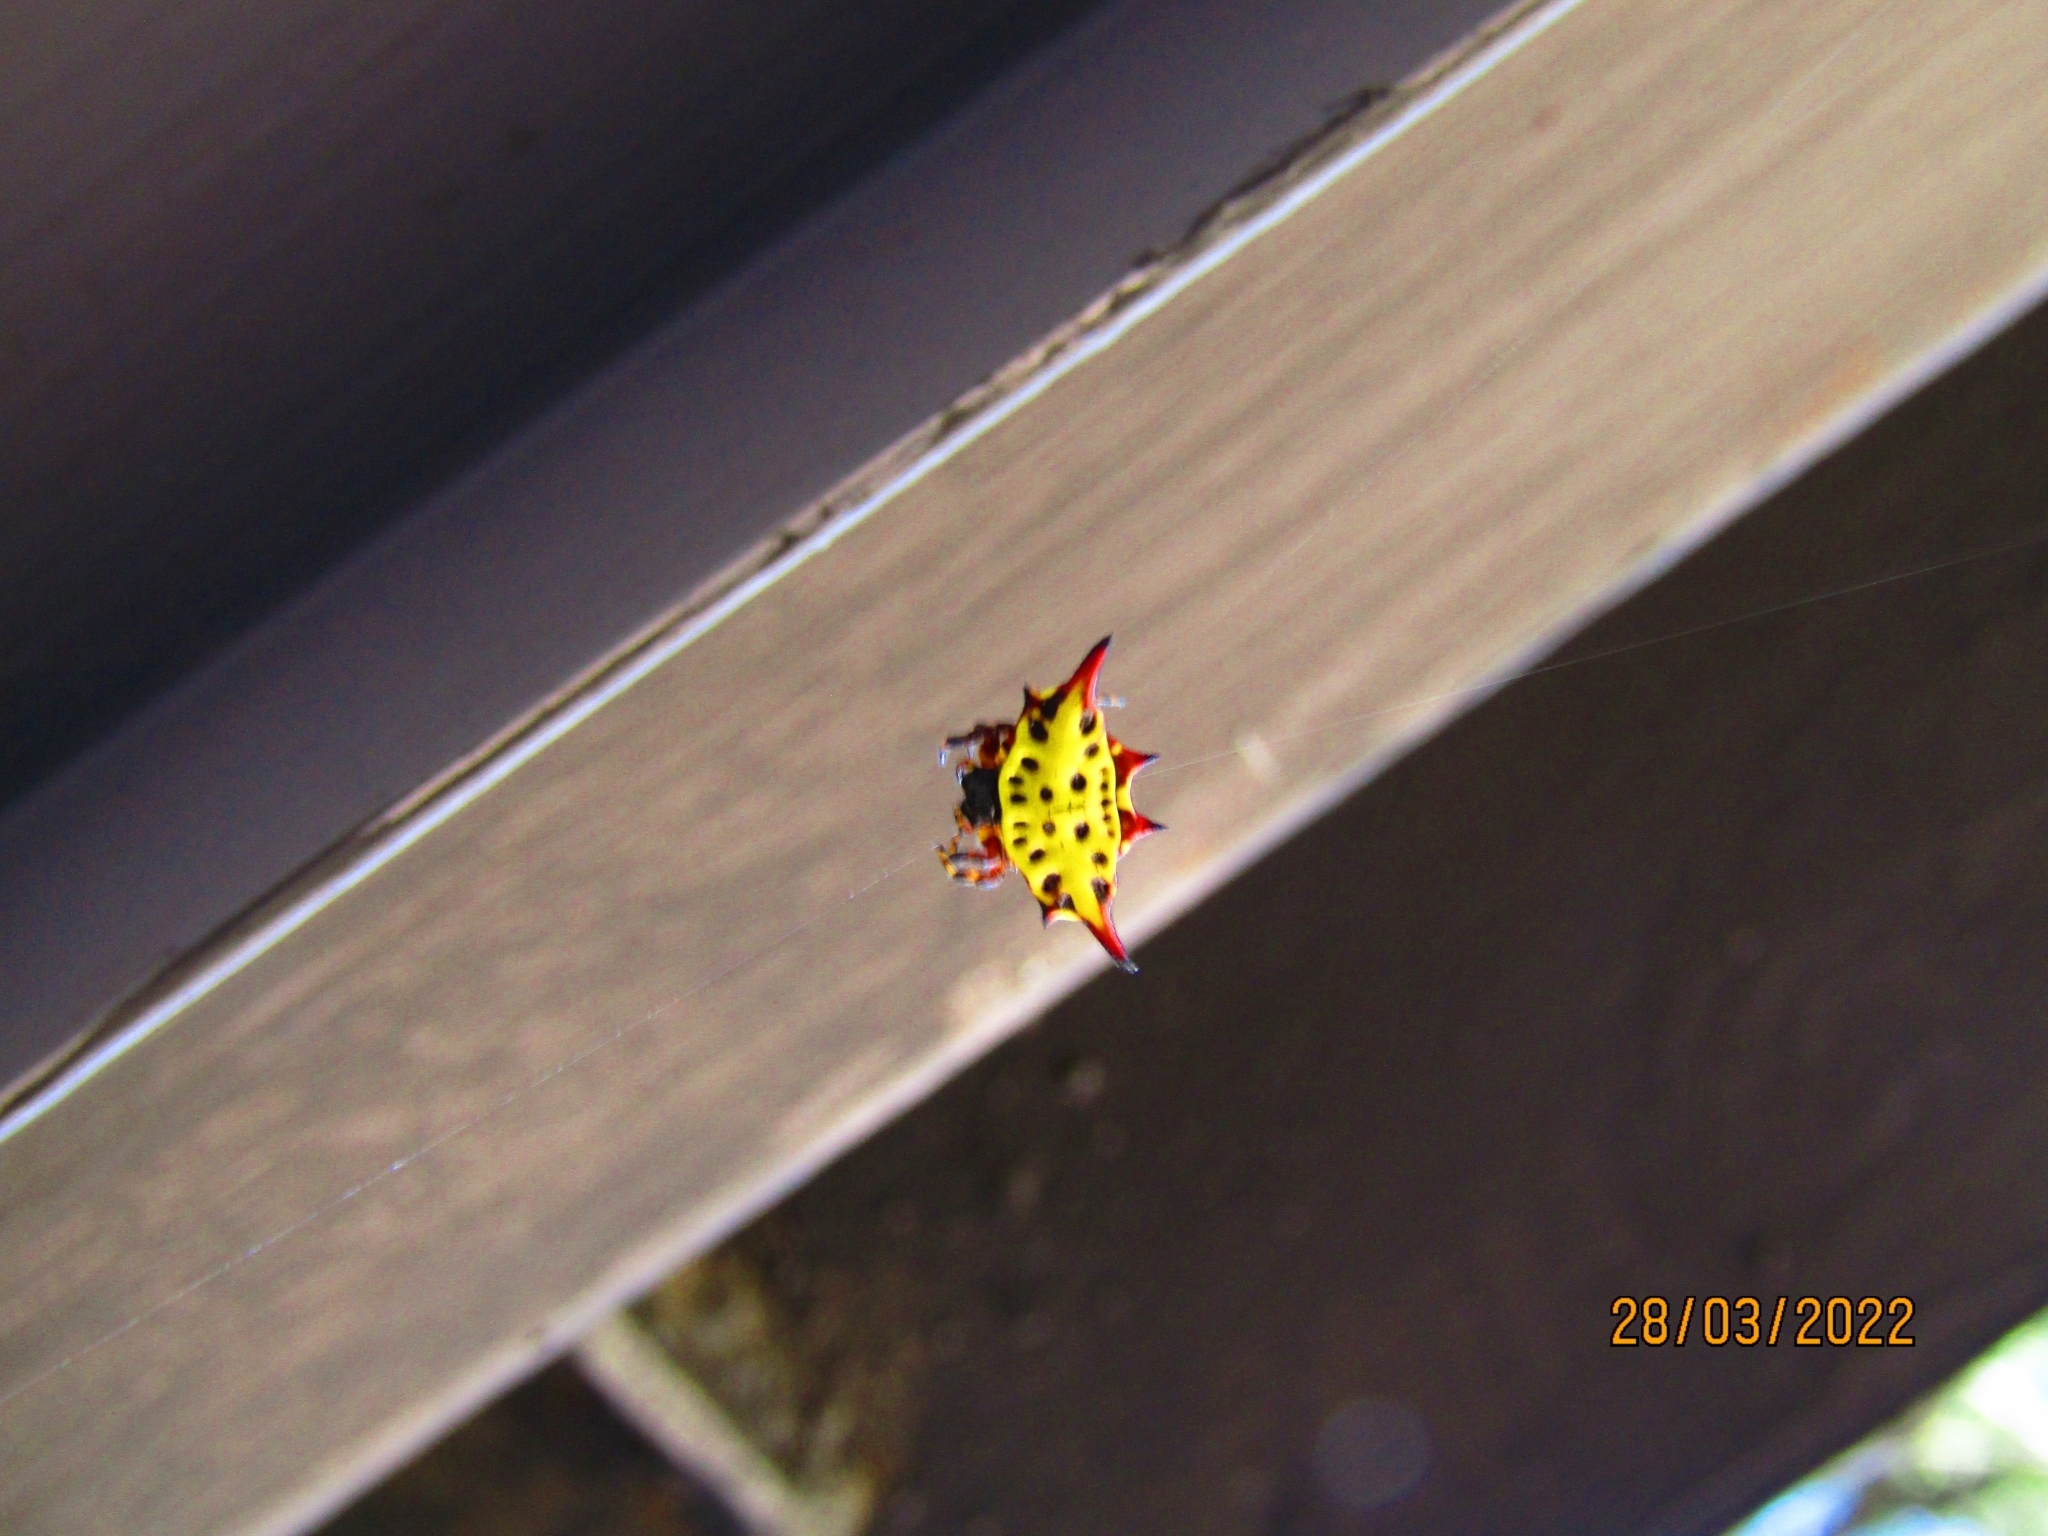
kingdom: Animalia
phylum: Arthropoda
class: Arachnida
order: Araneae
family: Araneidae
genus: Gasteracantha
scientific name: Gasteracantha versicolor
